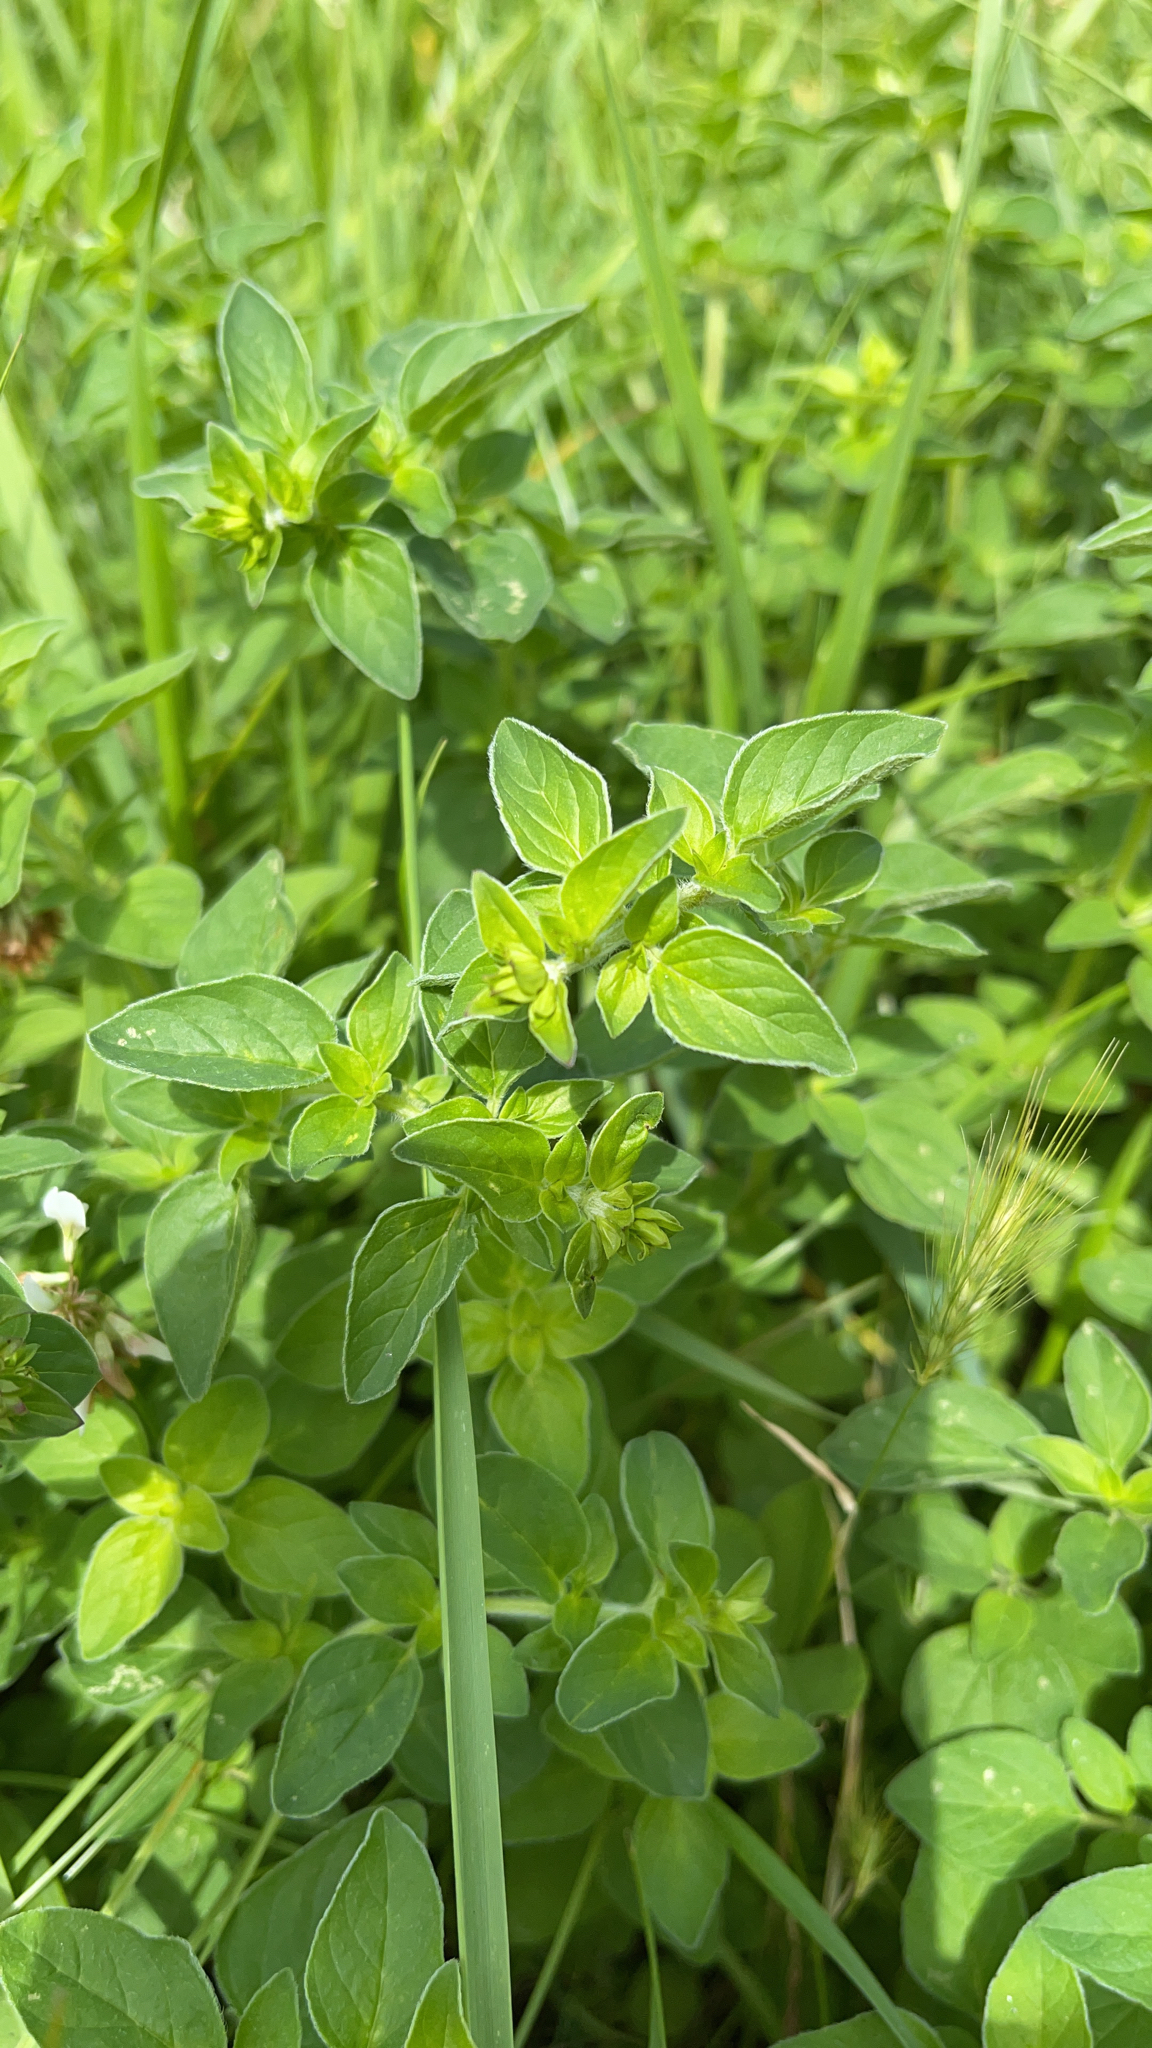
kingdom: Plantae
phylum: Tracheophyta
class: Magnoliopsida
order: Lamiales
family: Lamiaceae
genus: Origanum
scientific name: Origanum vulgare
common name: Wild marjoram
